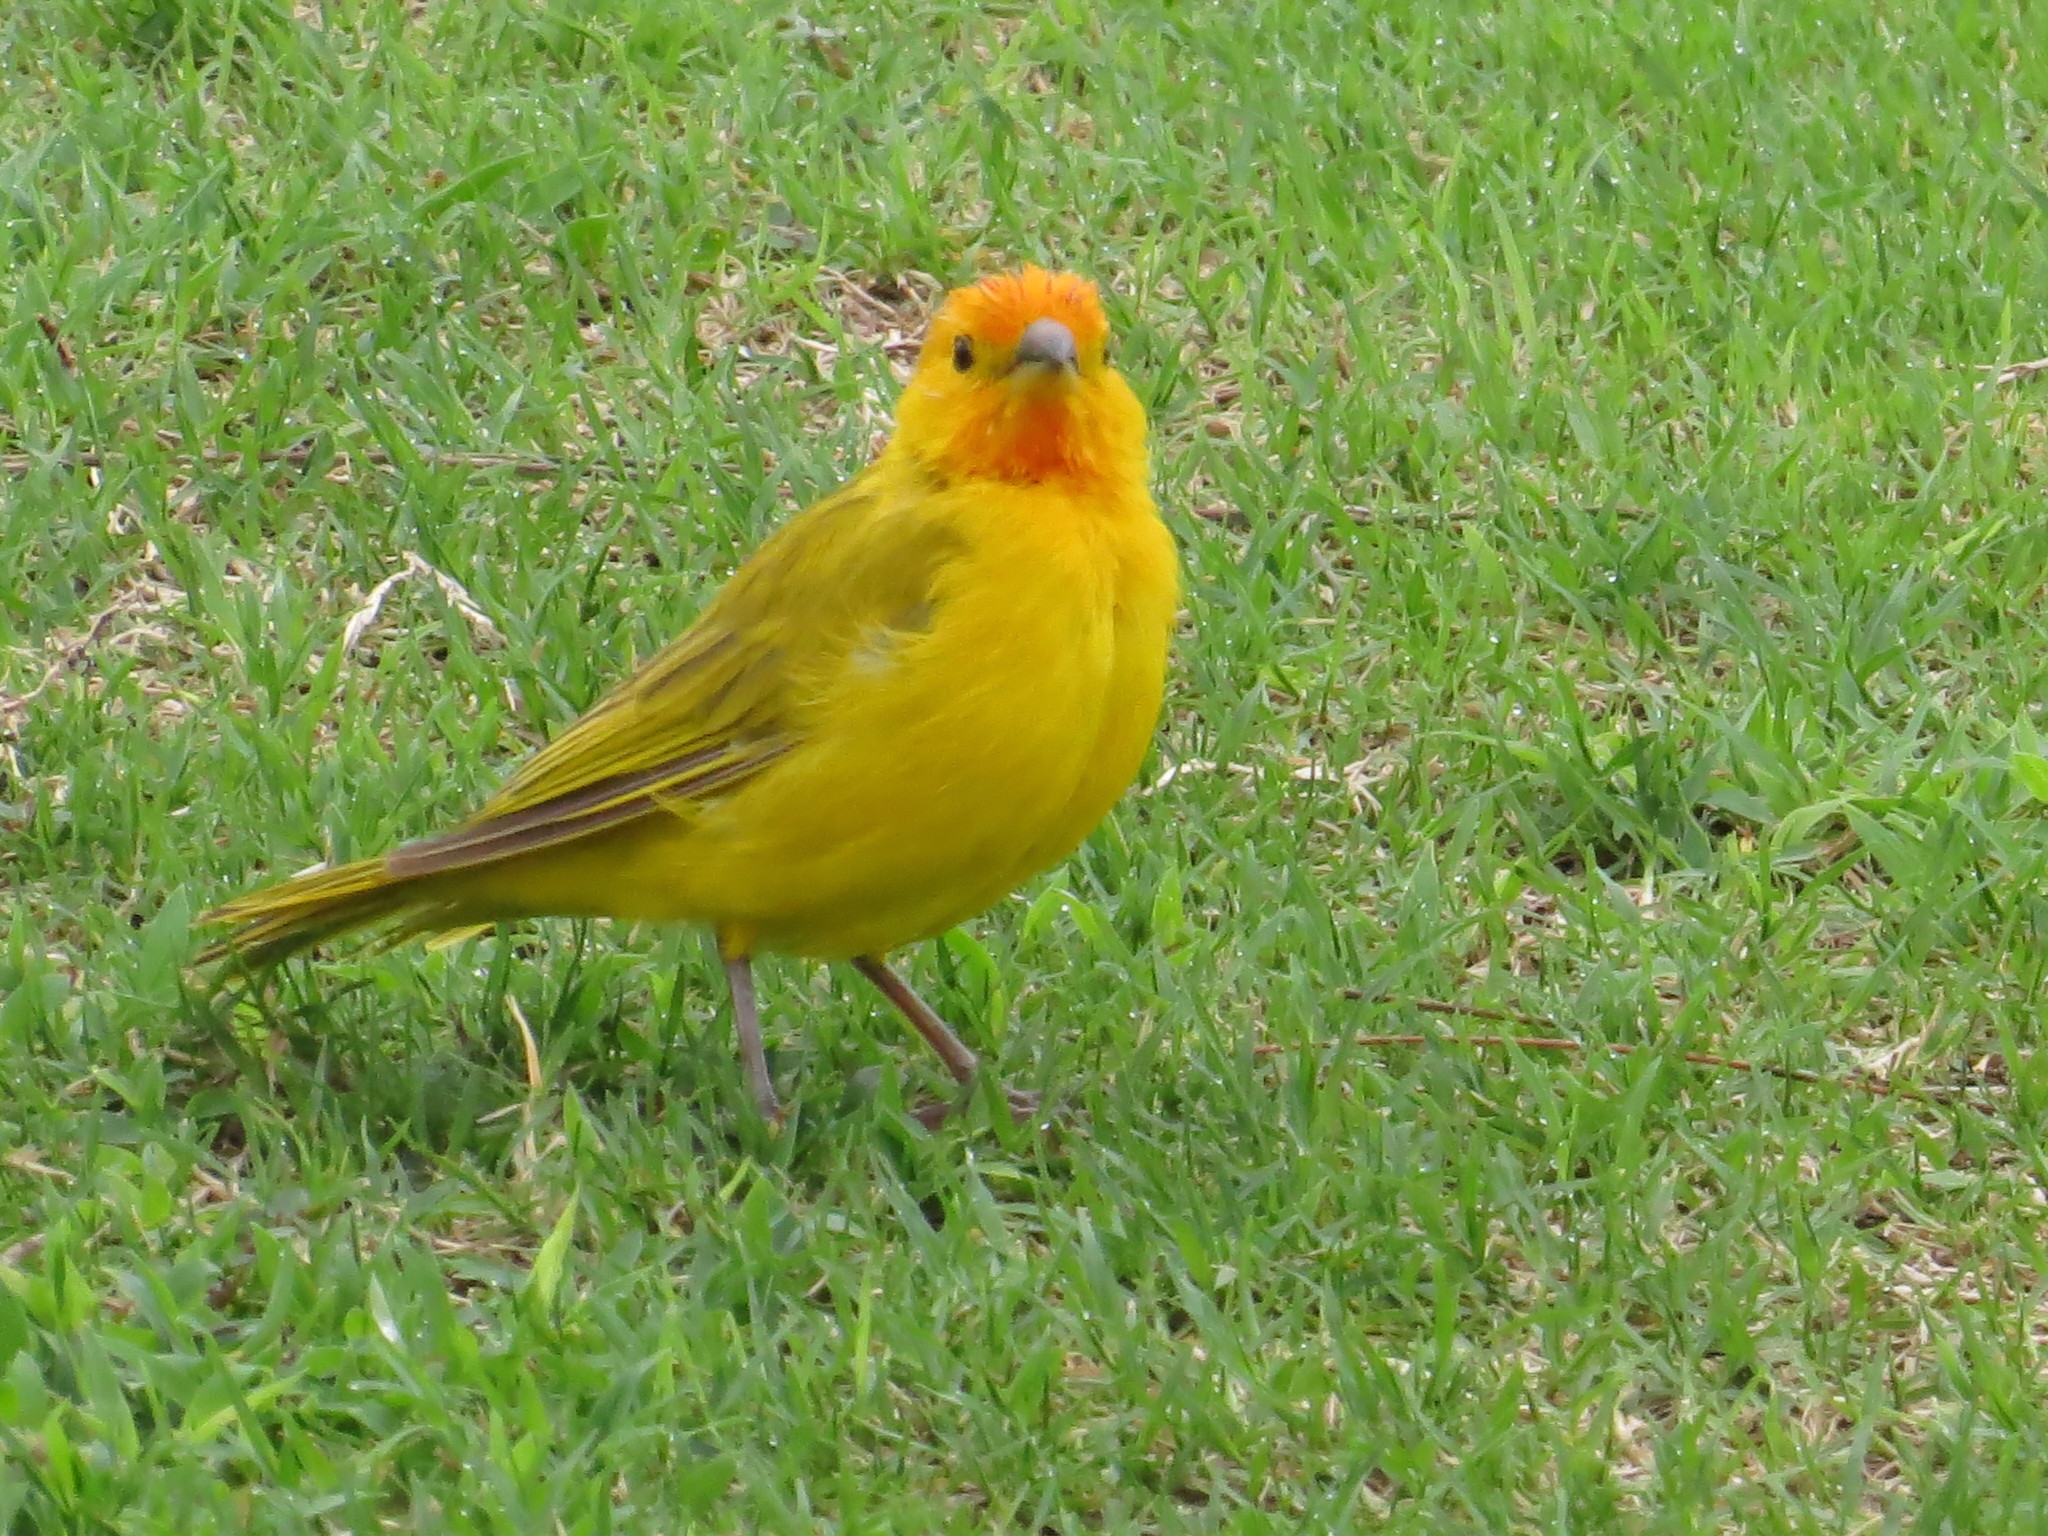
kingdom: Animalia
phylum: Chordata
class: Aves
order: Passeriformes
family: Thraupidae
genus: Sicalis
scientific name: Sicalis flaveola
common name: Saffron finch
